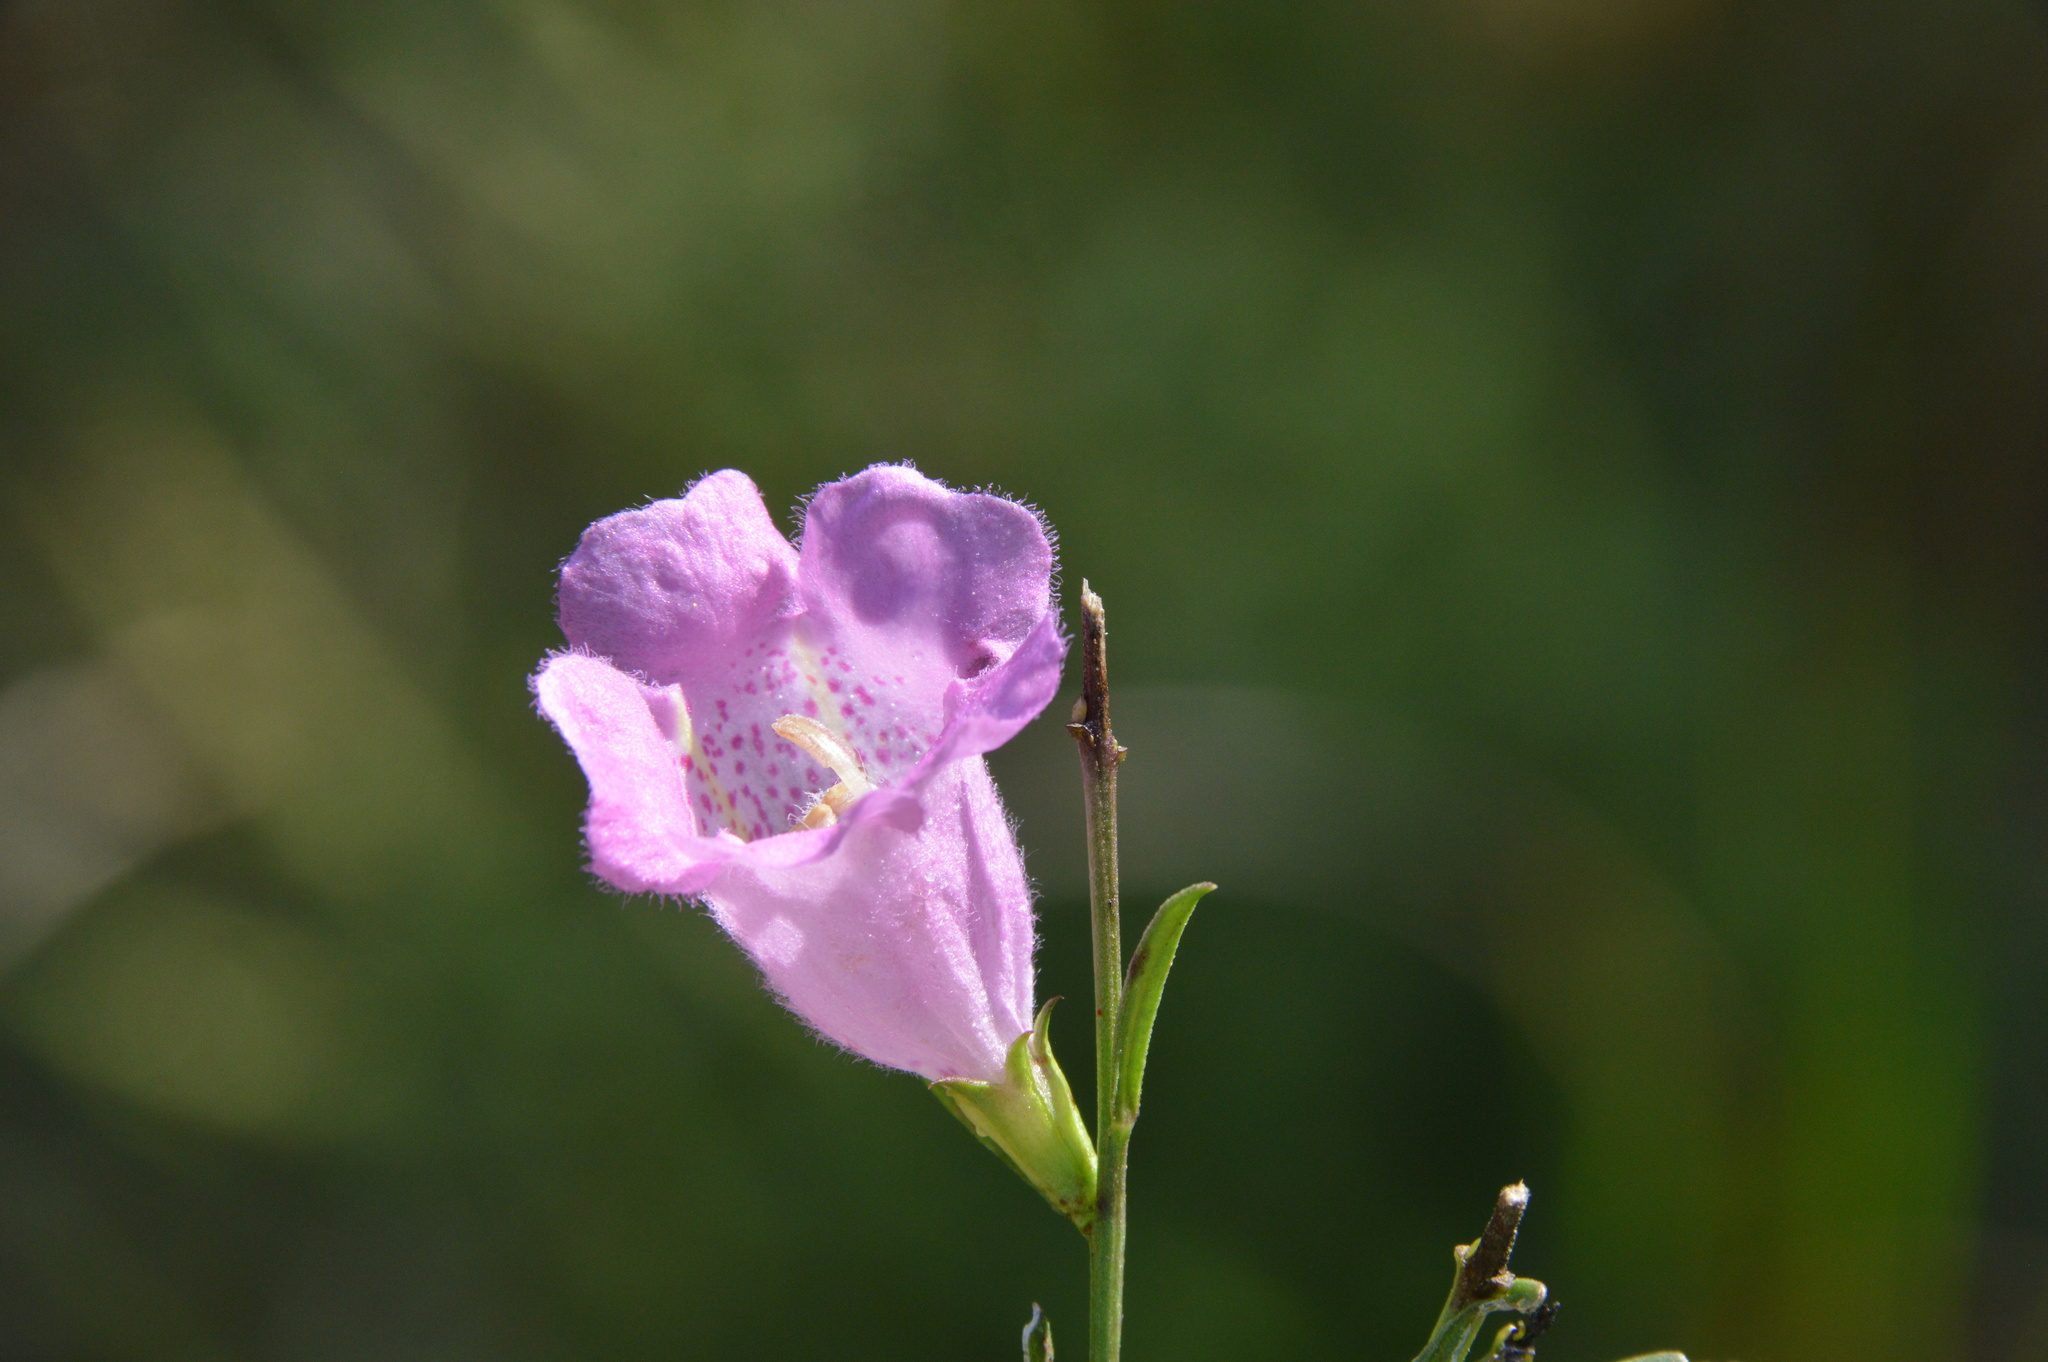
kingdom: Plantae
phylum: Tracheophyta
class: Magnoliopsida
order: Lamiales
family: Orobanchaceae
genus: Agalinis
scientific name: Agalinis heterophylla
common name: Prairie agalinis
